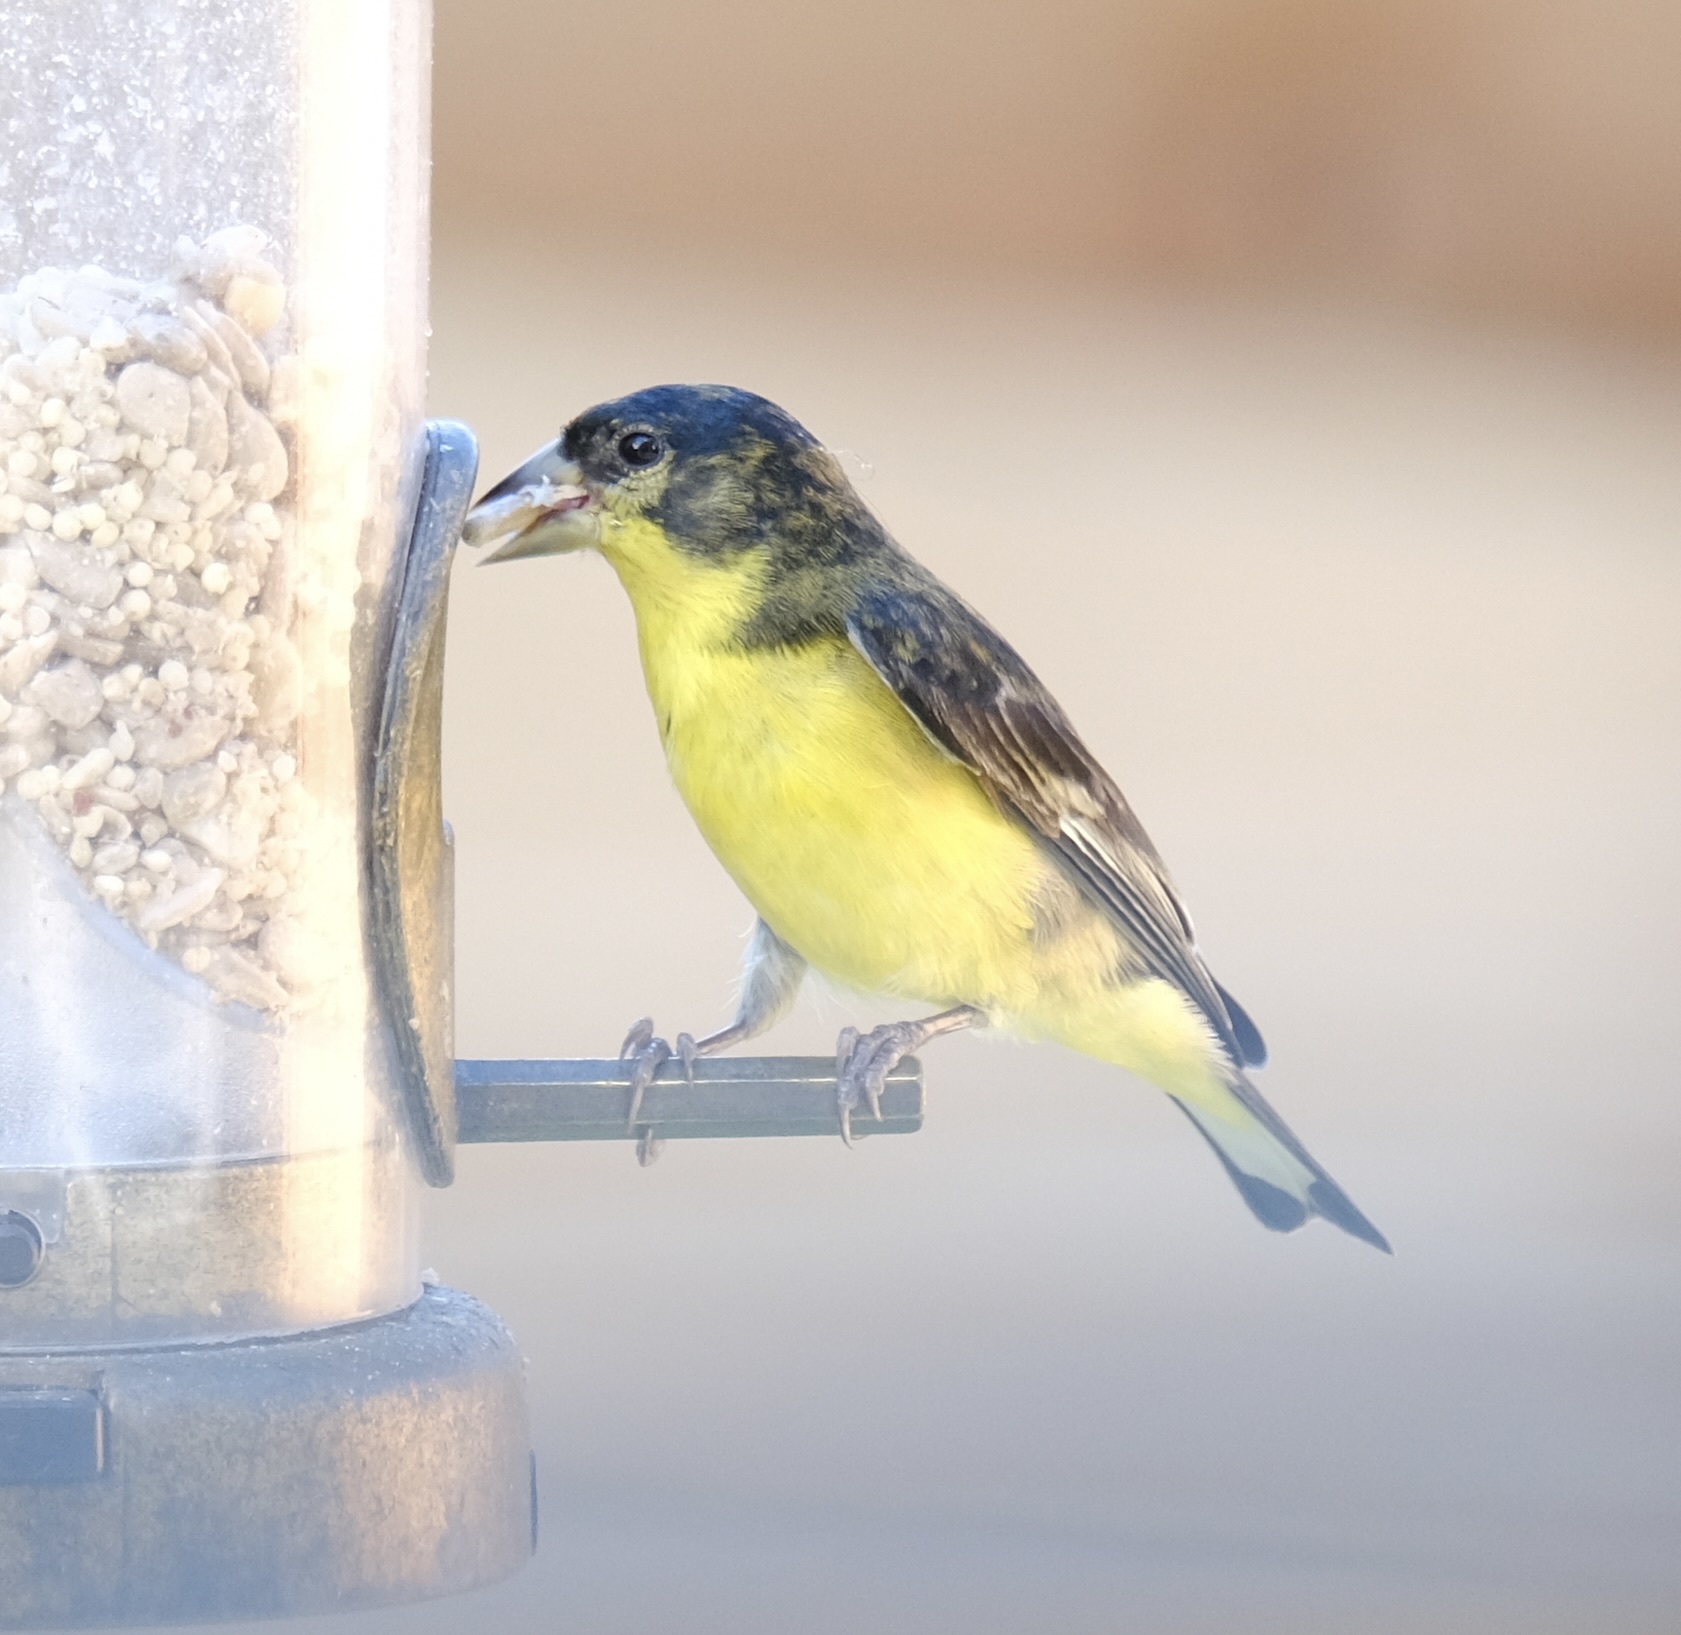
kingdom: Animalia
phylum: Chordata
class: Aves
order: Passeriformes
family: Fringillidae
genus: Spinus
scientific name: Spinus psaltria
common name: Lesser goldfinch
